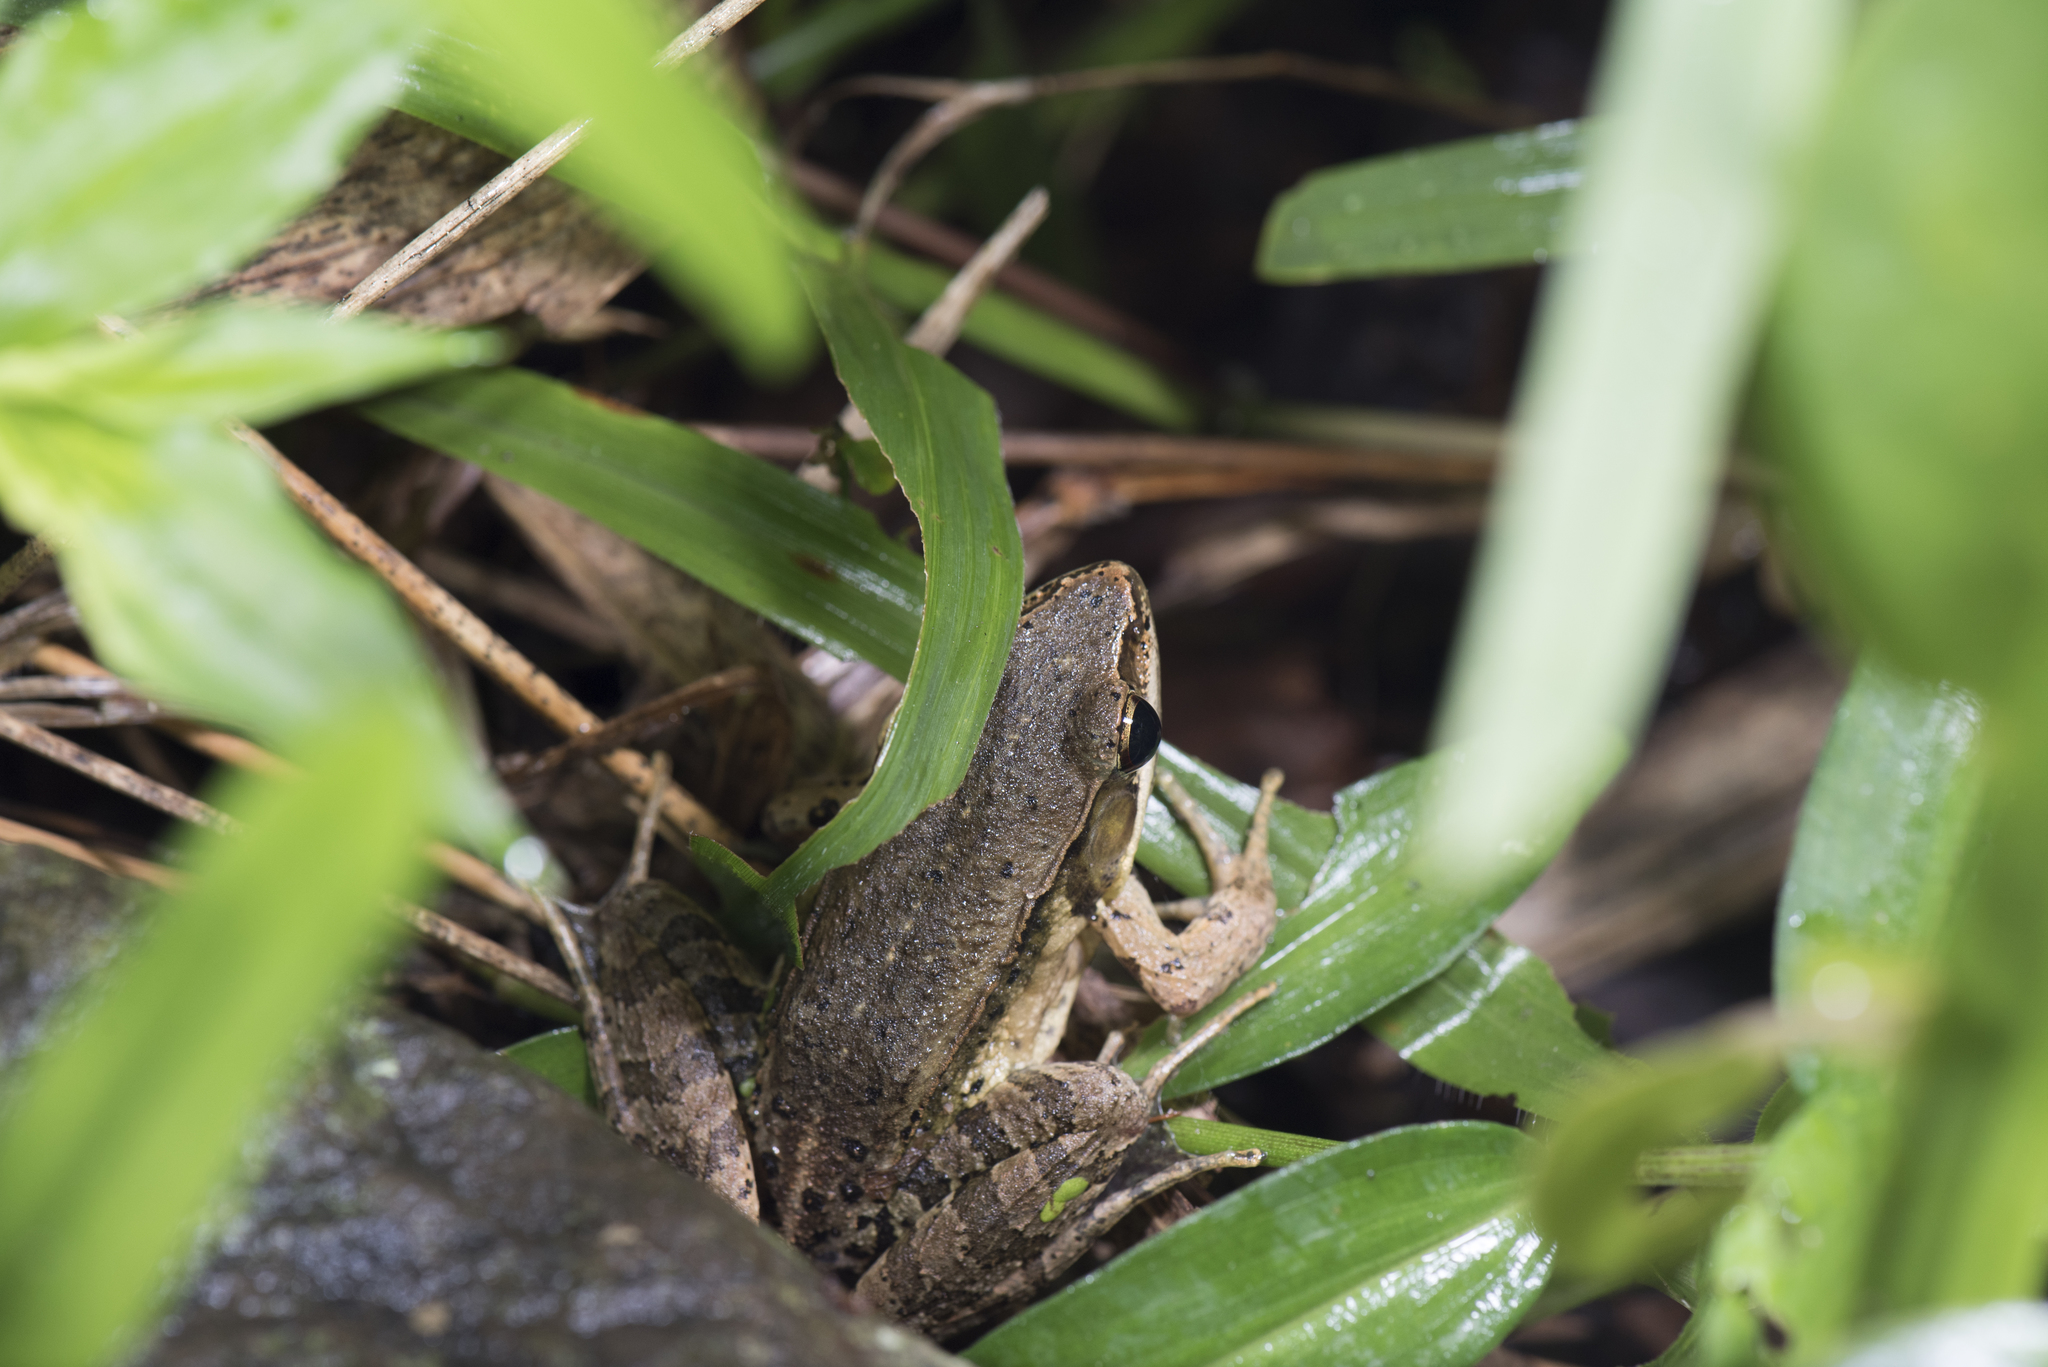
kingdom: Animalia
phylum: Chordata
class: Amphibia
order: Anura
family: Ranidae
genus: Nidirana
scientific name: Nidirana adenopleura
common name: Olive frog
